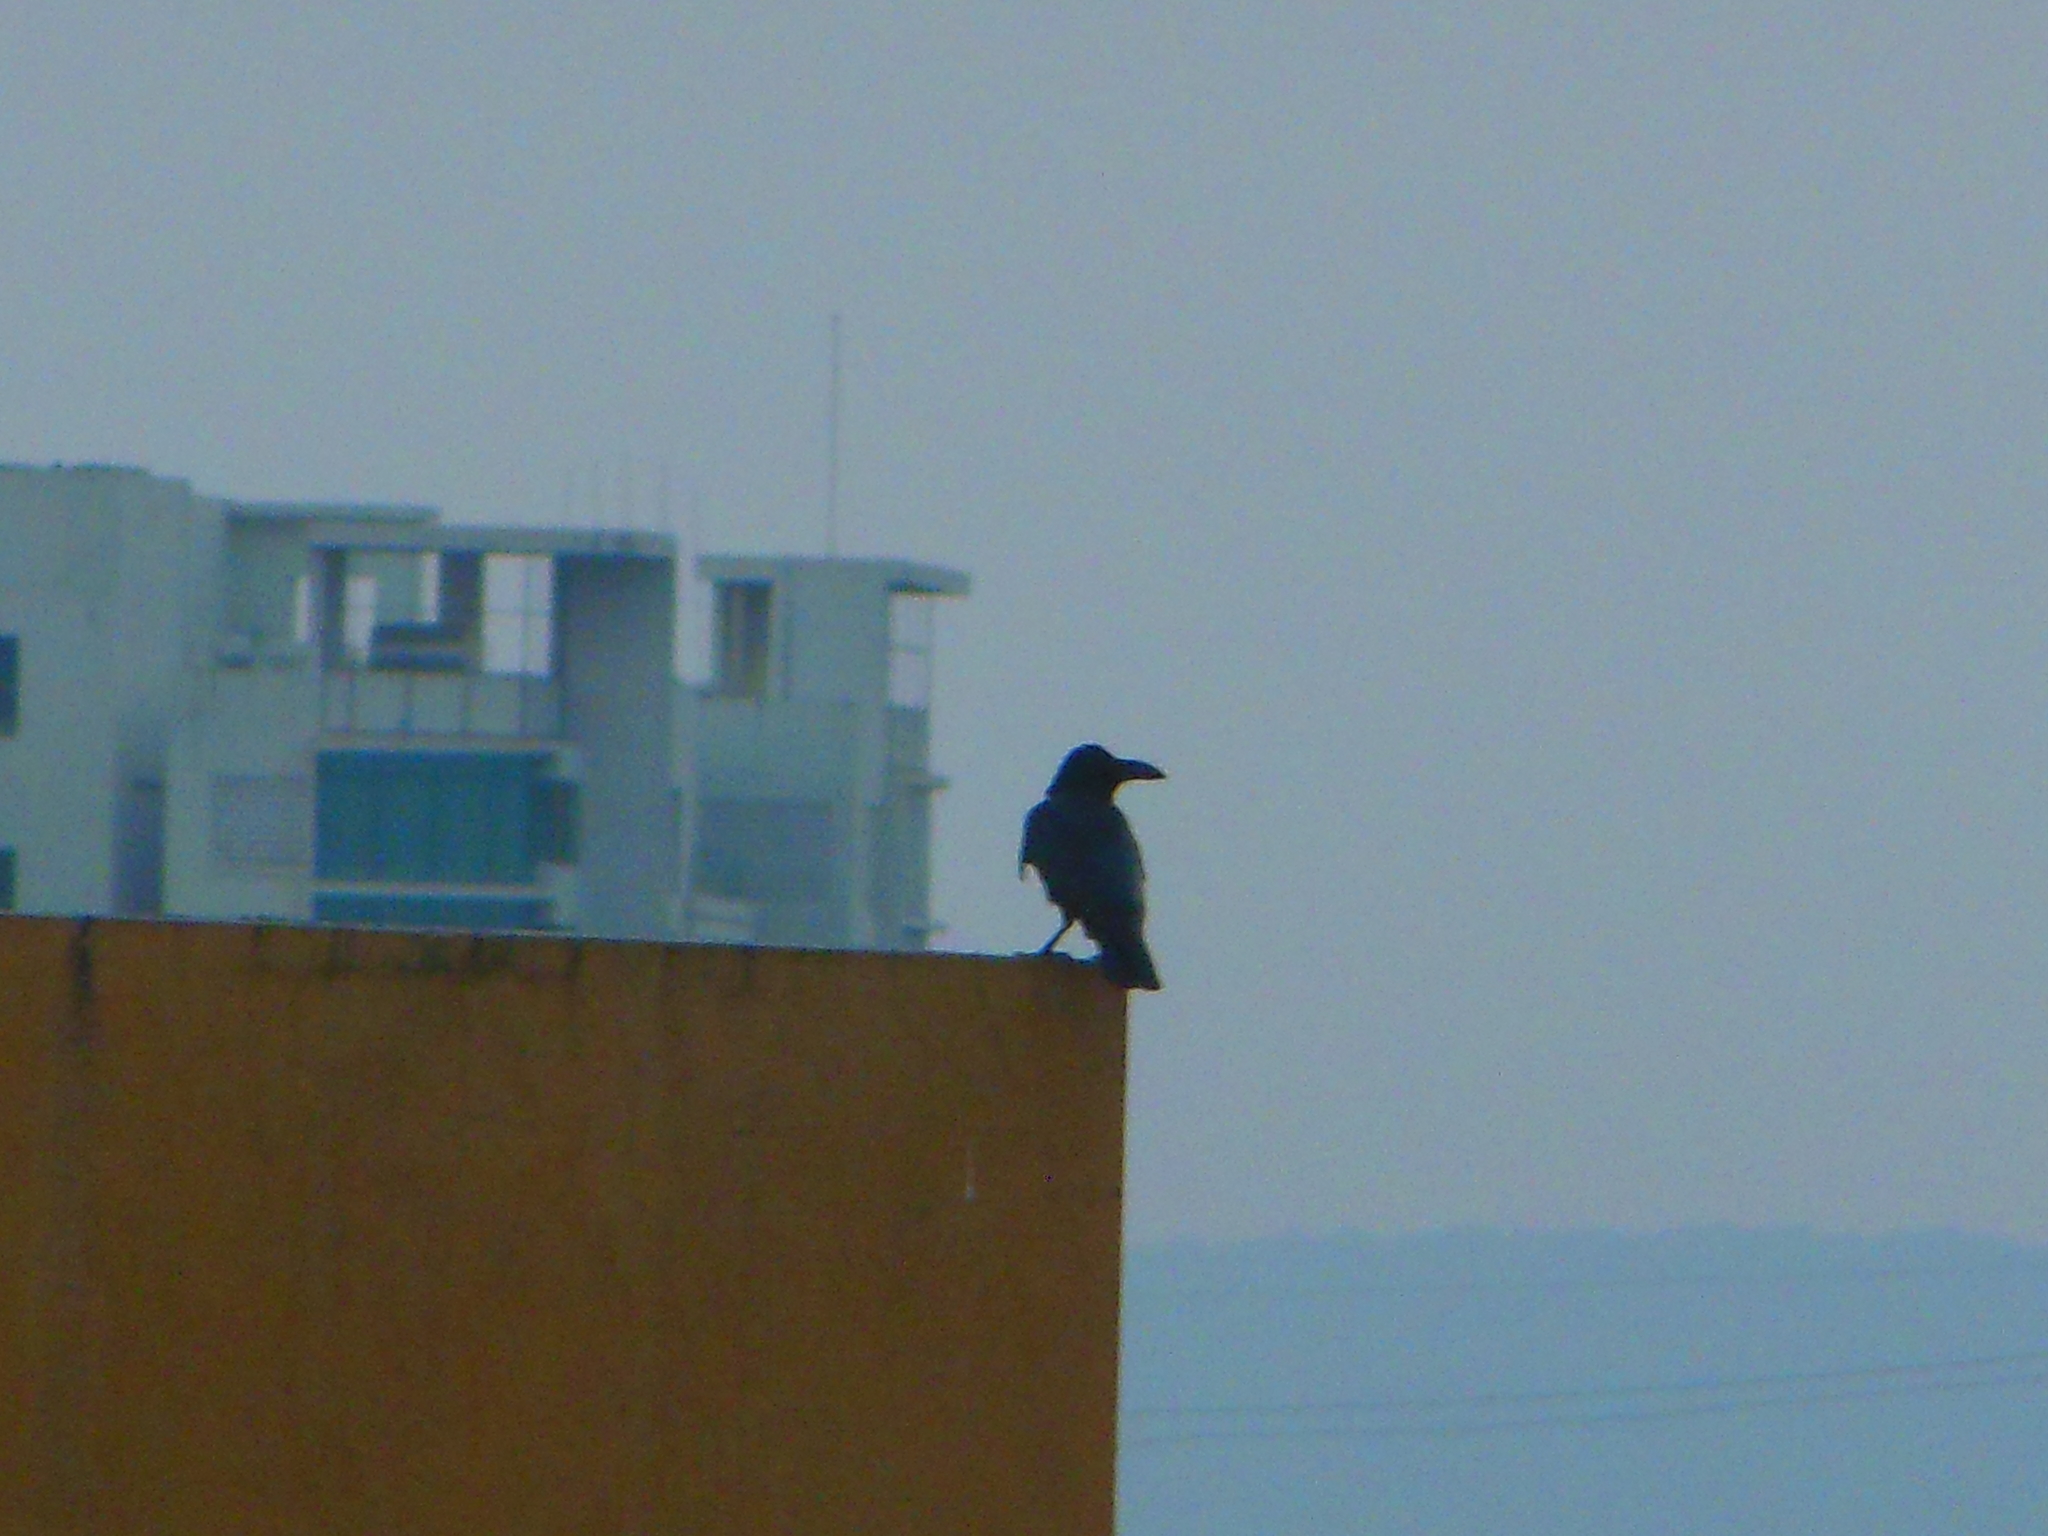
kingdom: Animalia
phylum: Chordata
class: Aves
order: Passeriformes
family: Corvidae
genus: Corvus
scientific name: Corvus macrorhynchos
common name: Large-billed crow
